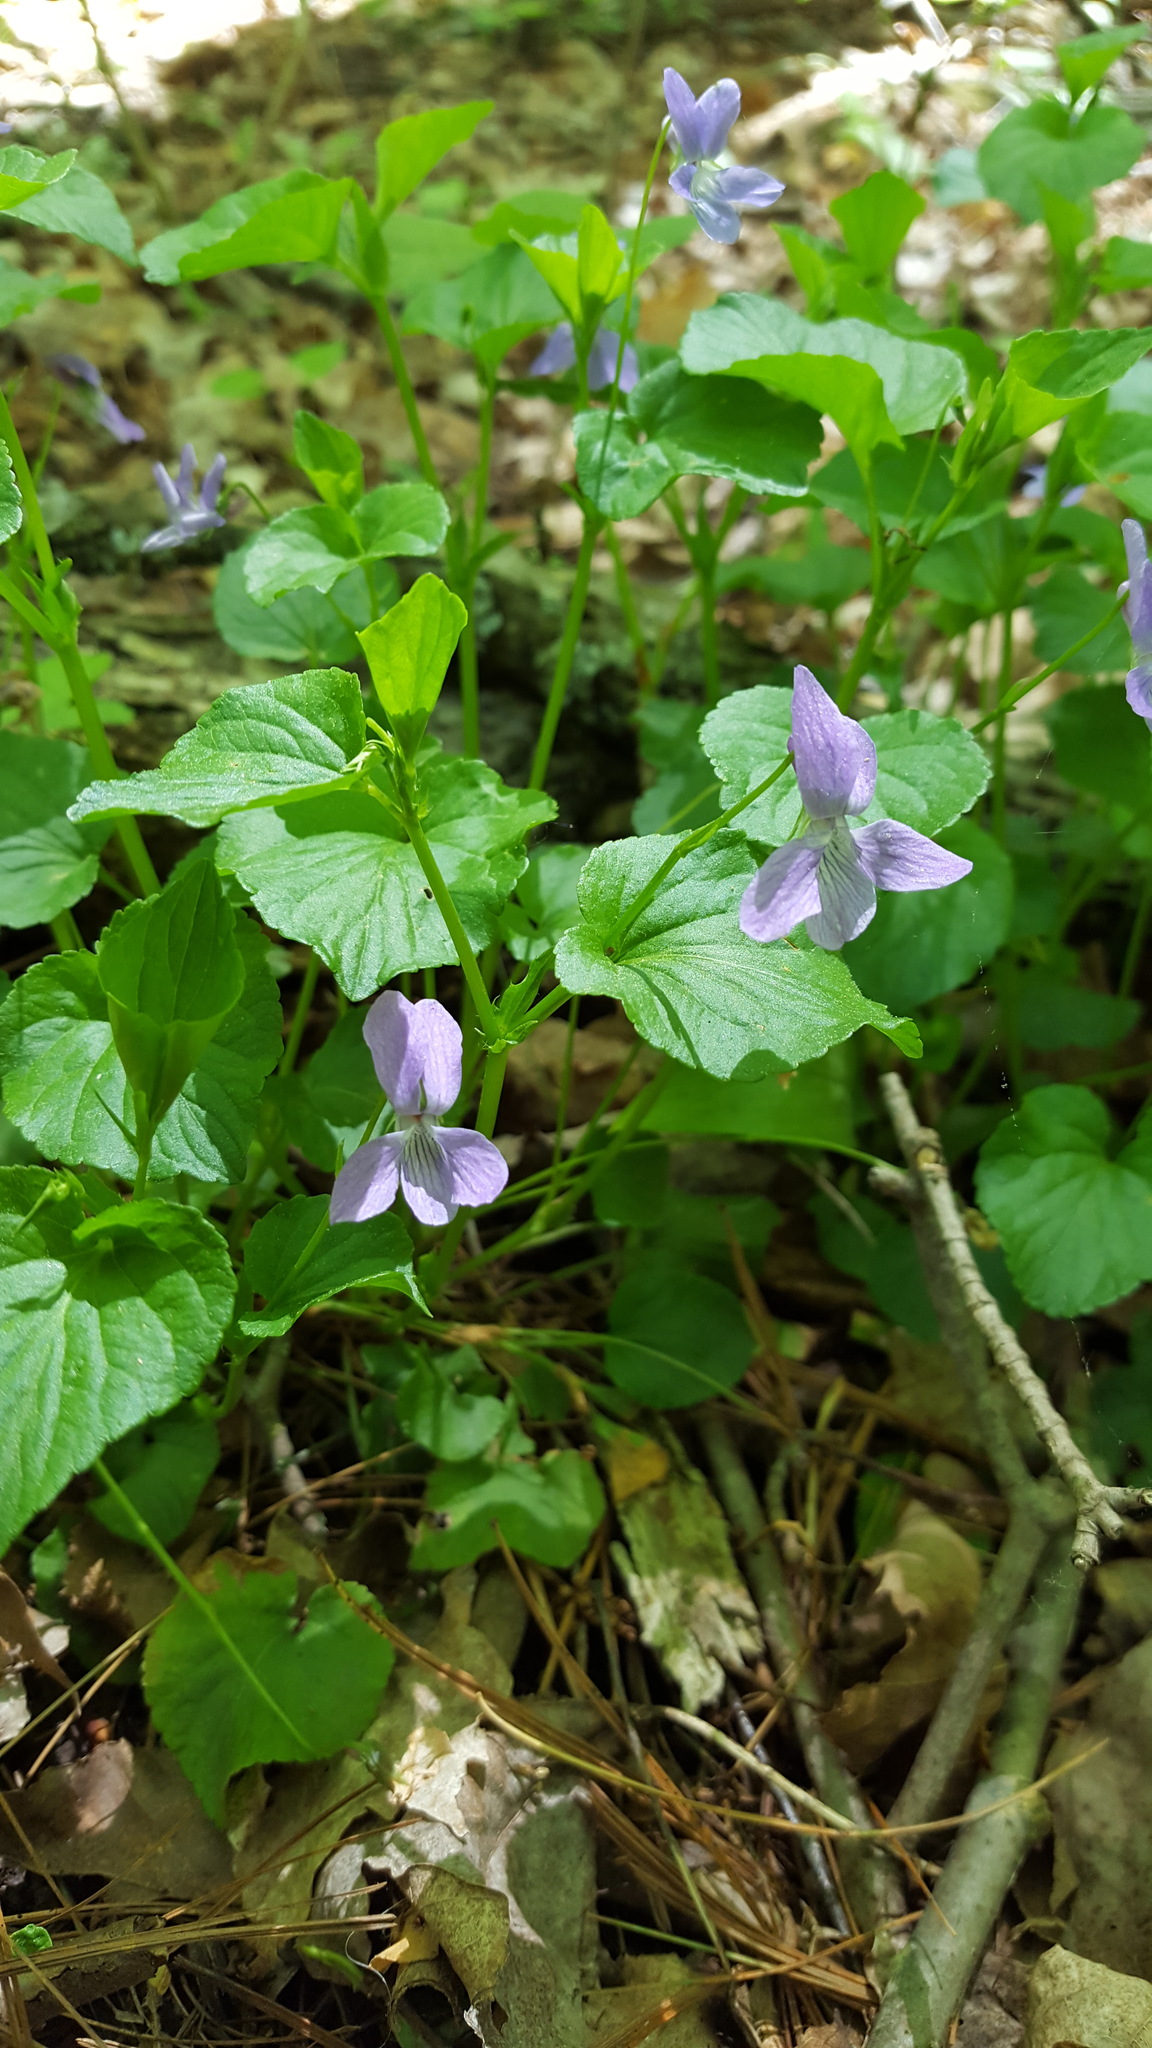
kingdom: Plantae
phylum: Tracheophyta
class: Magnoliopsida
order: Malpighiales
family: Violaceae
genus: Viola
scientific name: Viola labradorica
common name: Labrador violet
